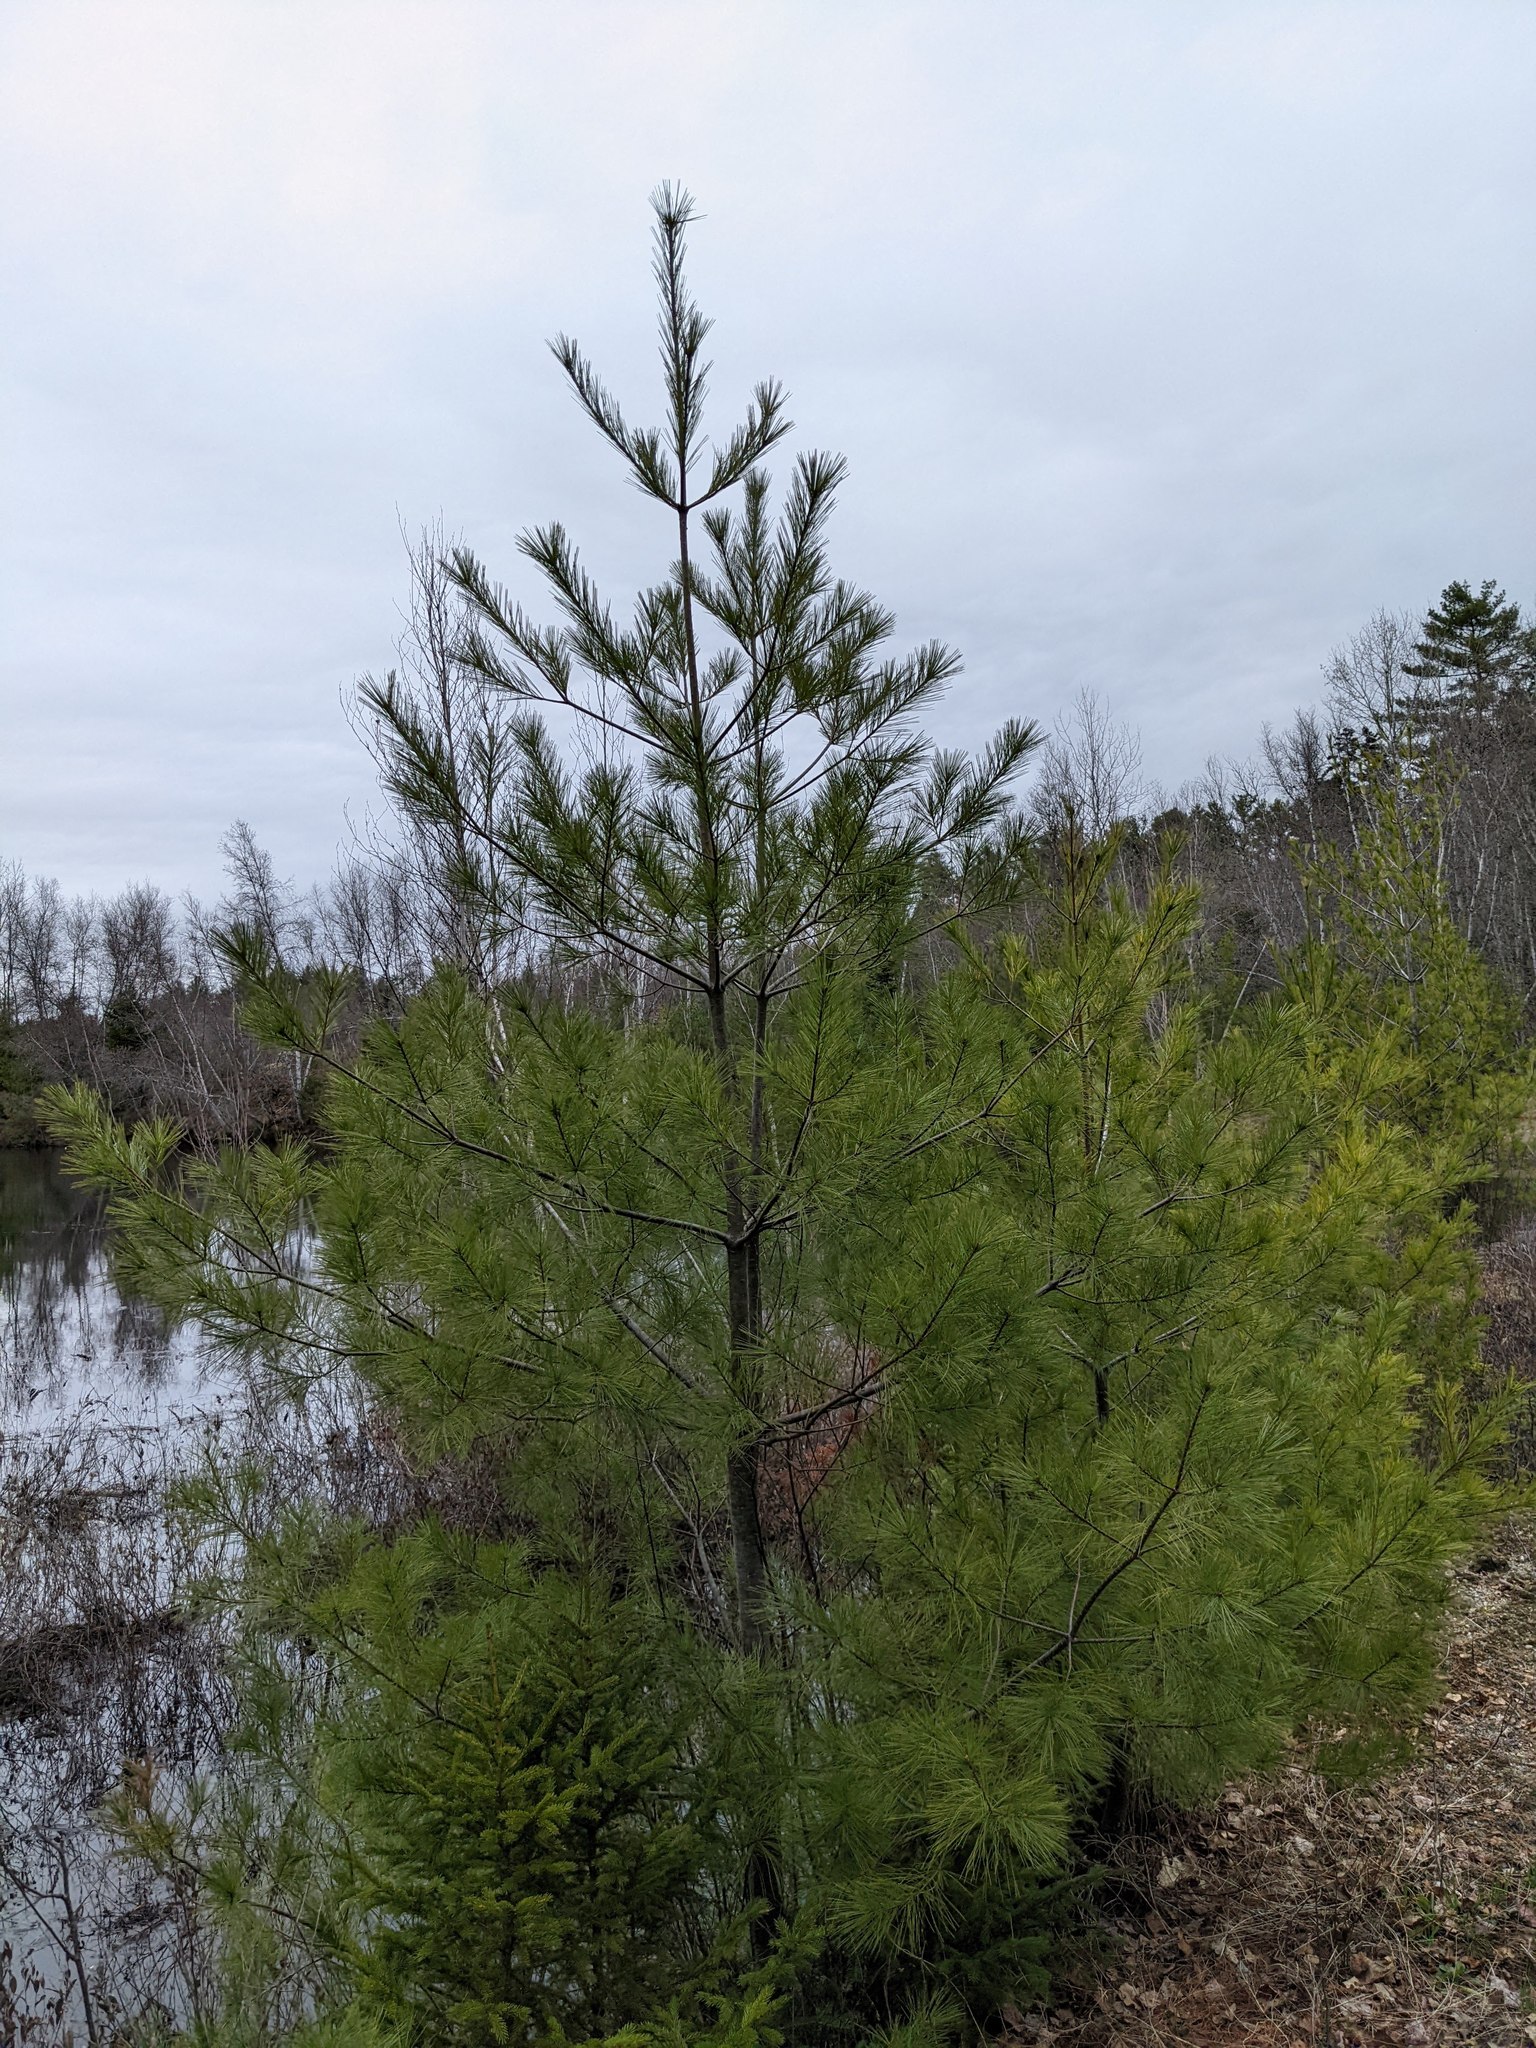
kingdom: Plantae
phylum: Tracheophyta
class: Pinopsida
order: Pinales
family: Pinaceae
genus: Pinus
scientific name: Pinus strobus
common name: Weymouth pine
